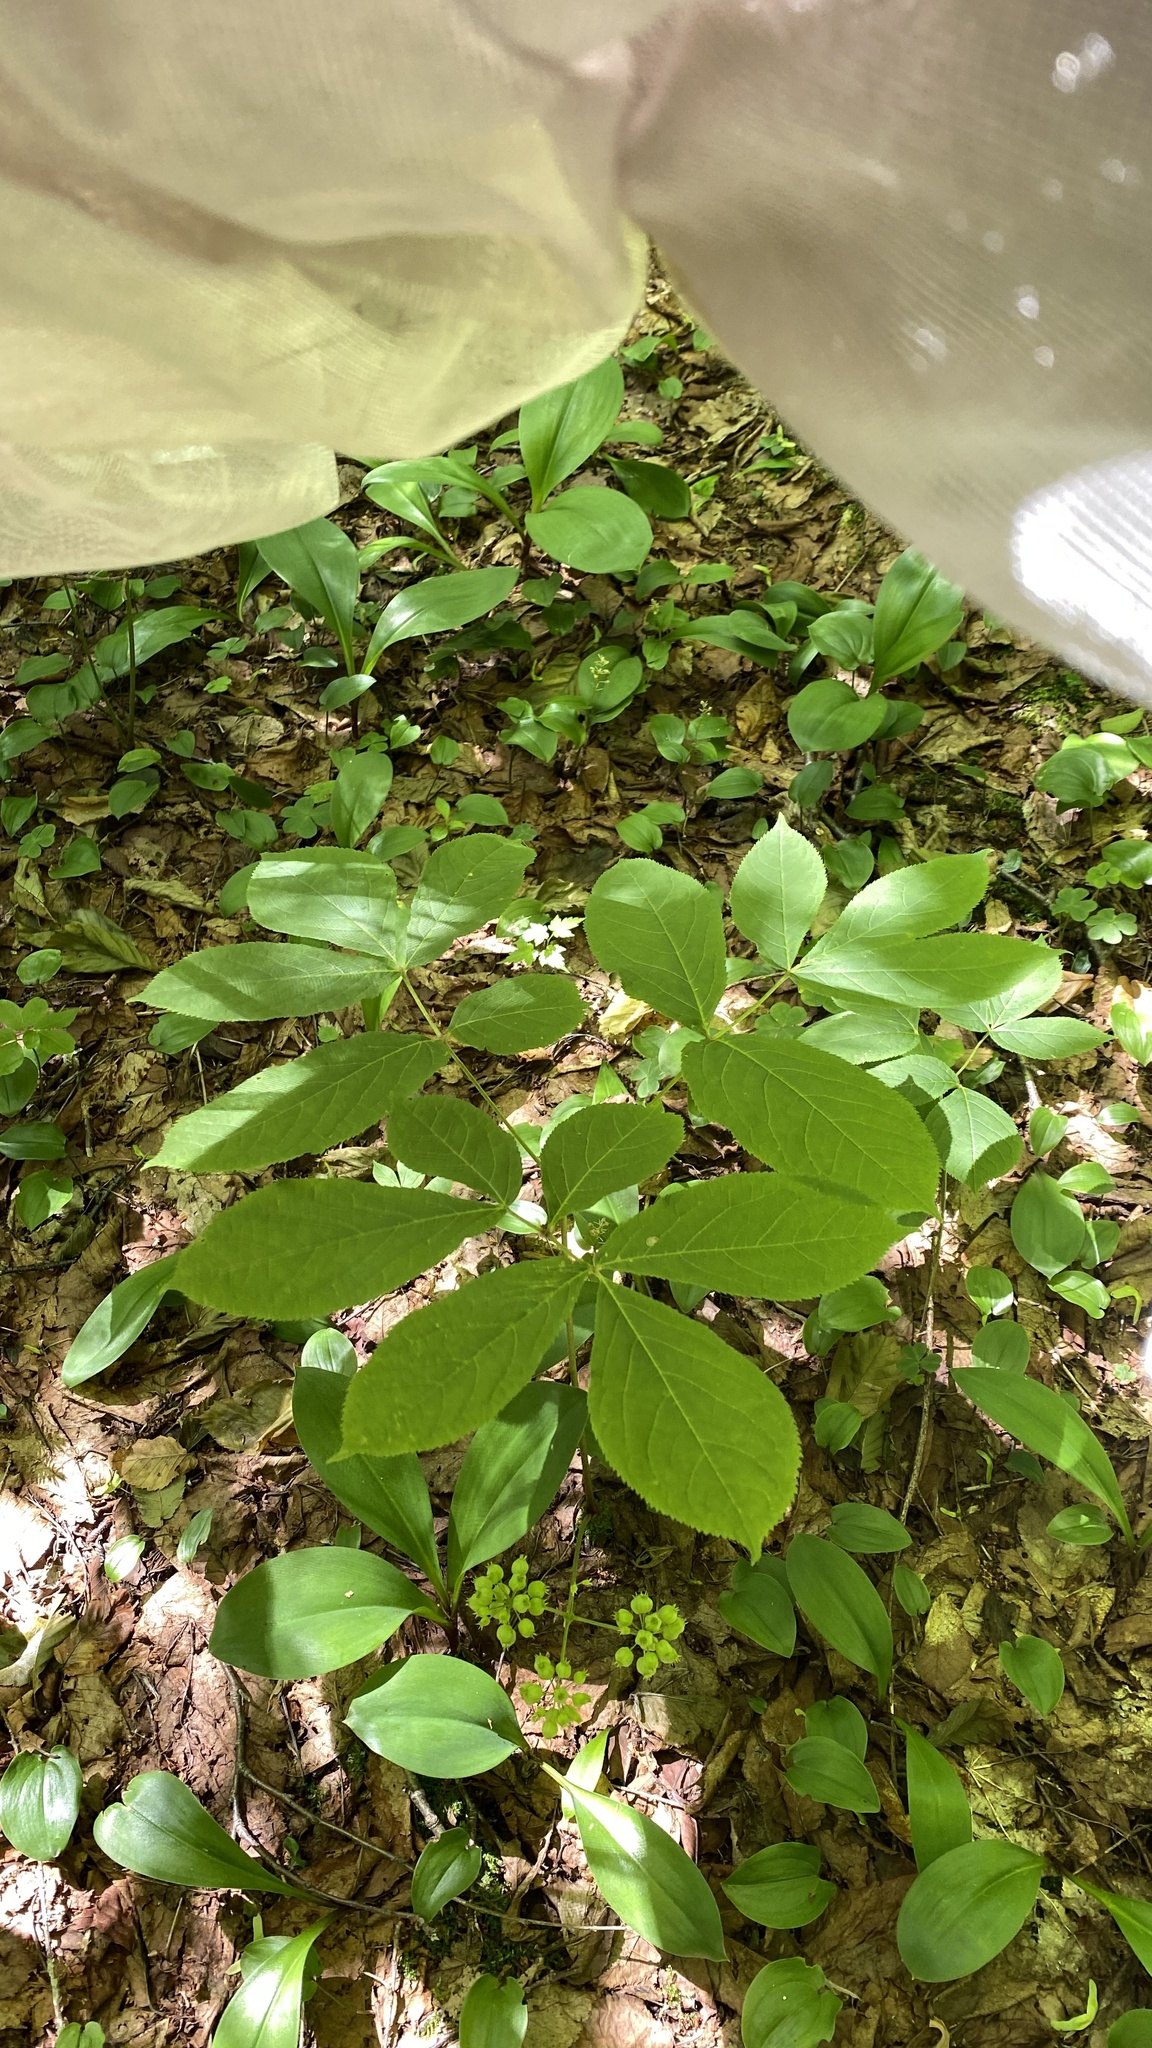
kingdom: Plantae
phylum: Tracheophyta
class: Magnoliopsida
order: Apiales
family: Araliaceae
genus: Aralia
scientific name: Aralia nudicaulis
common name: Wild sarsaparilla
